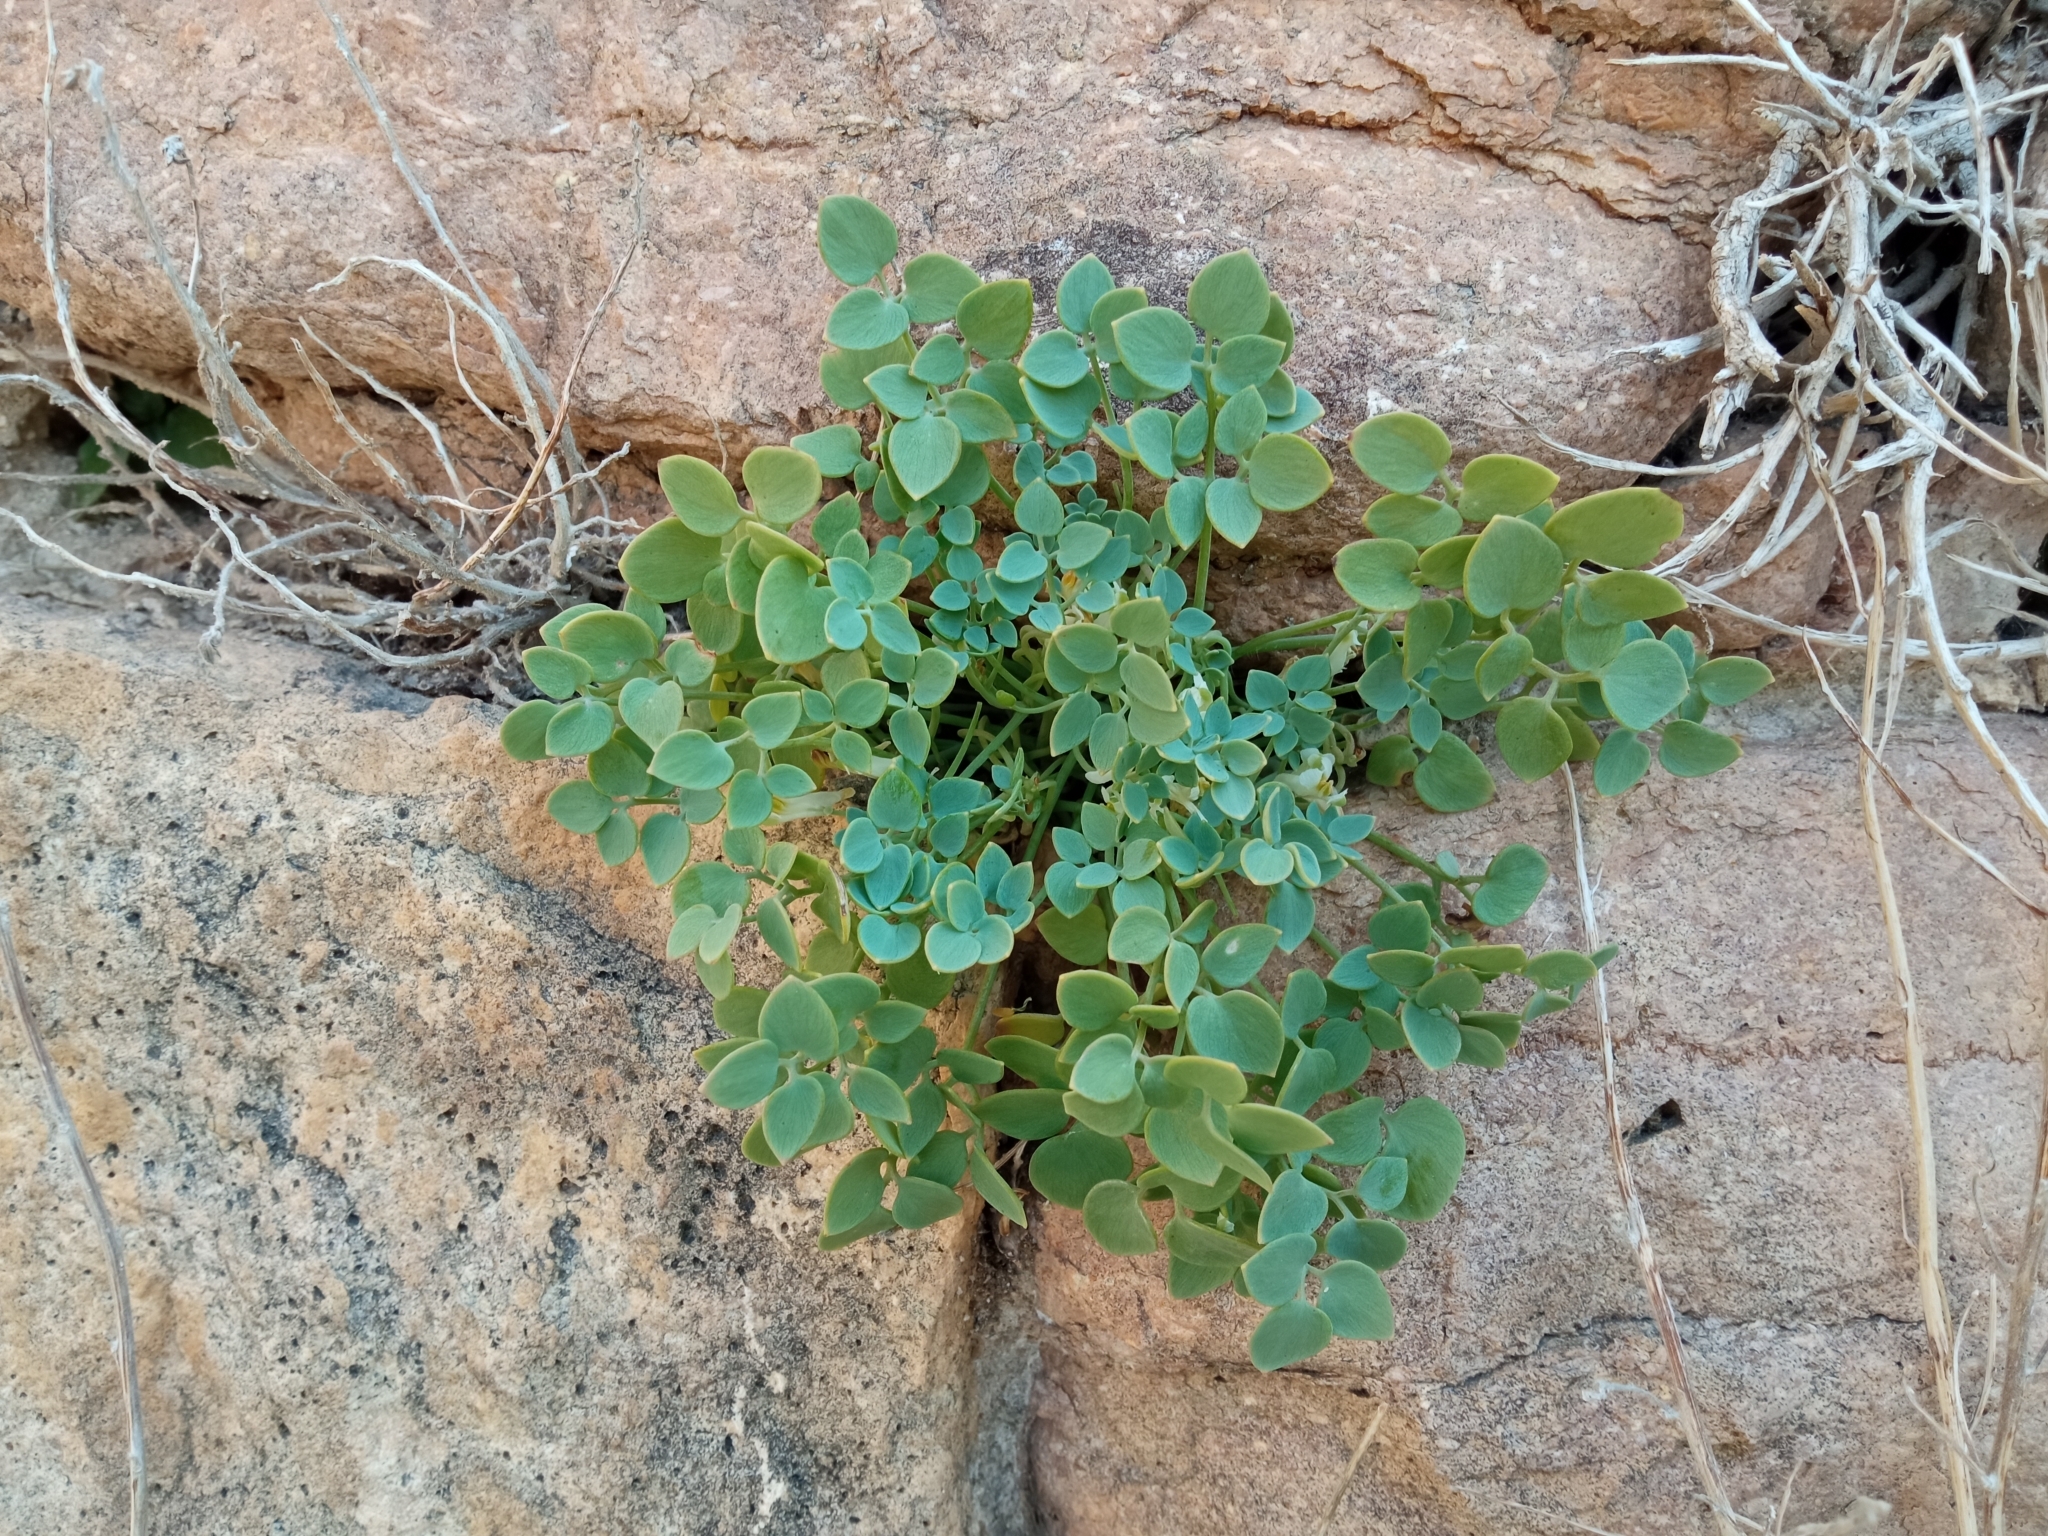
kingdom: Plantae
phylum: Tracheophyta
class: Magnoliopsida
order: Ranunculales
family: Papaveraceae
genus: Sarcocapnos
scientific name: Sarcocapnos enneaphylla
